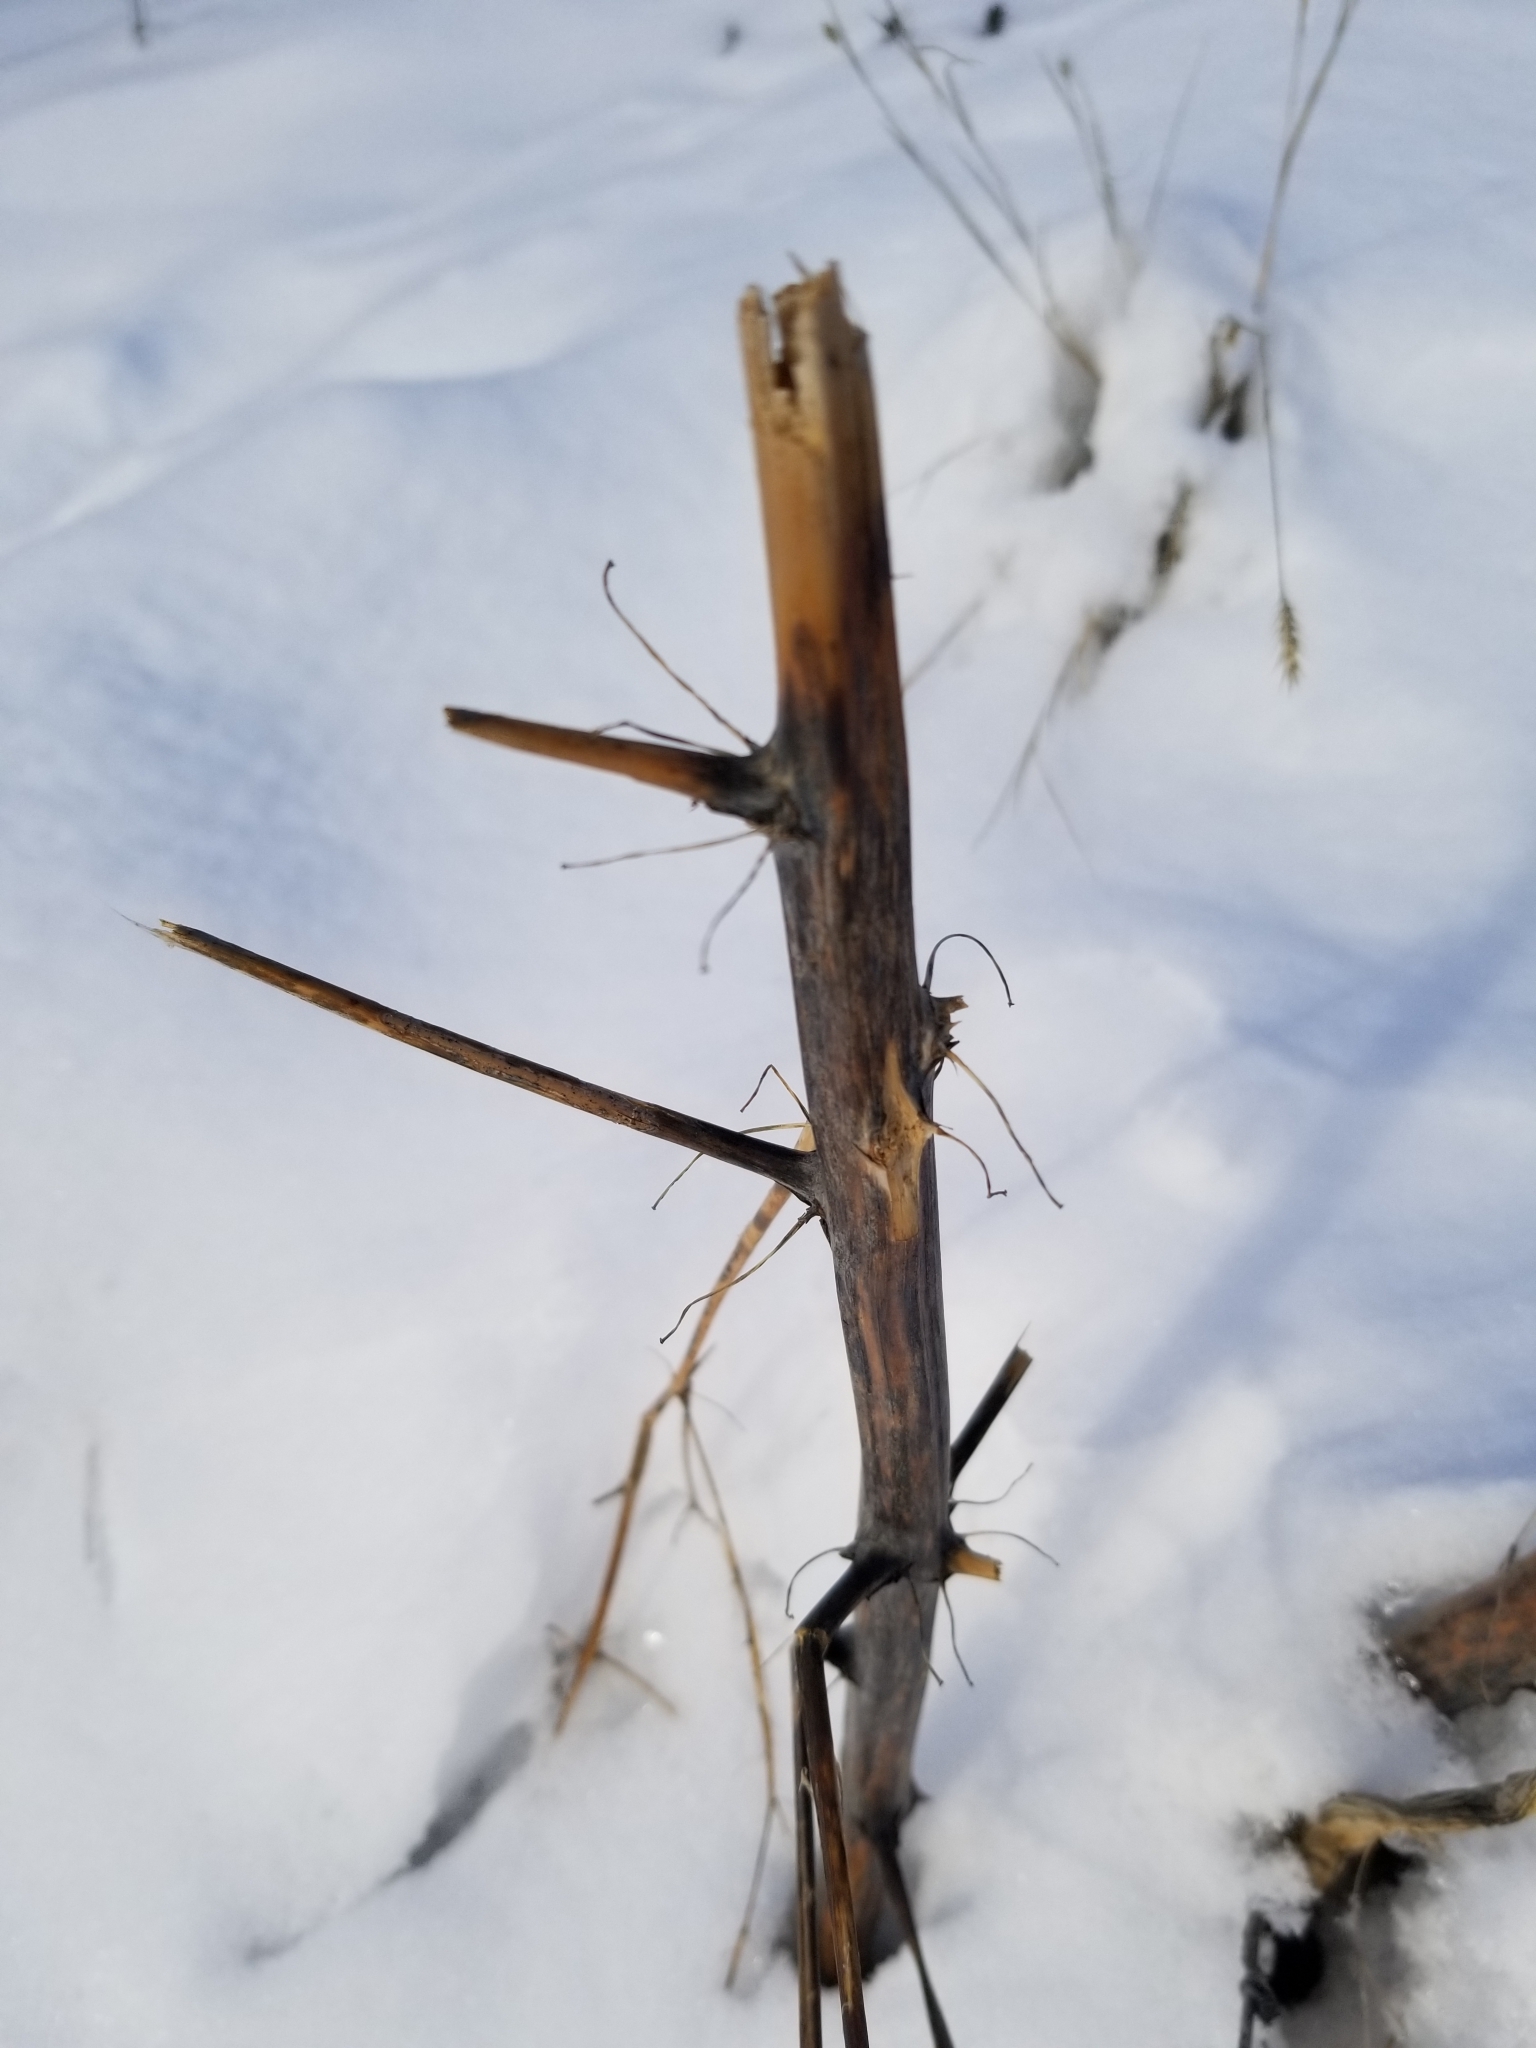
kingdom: Plantae
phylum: Tracheophyta
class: Liliopsida
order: Asparagales
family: Asparagaceae
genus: Asparagus
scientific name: Asparagus officinalis
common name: Garden asparagus
